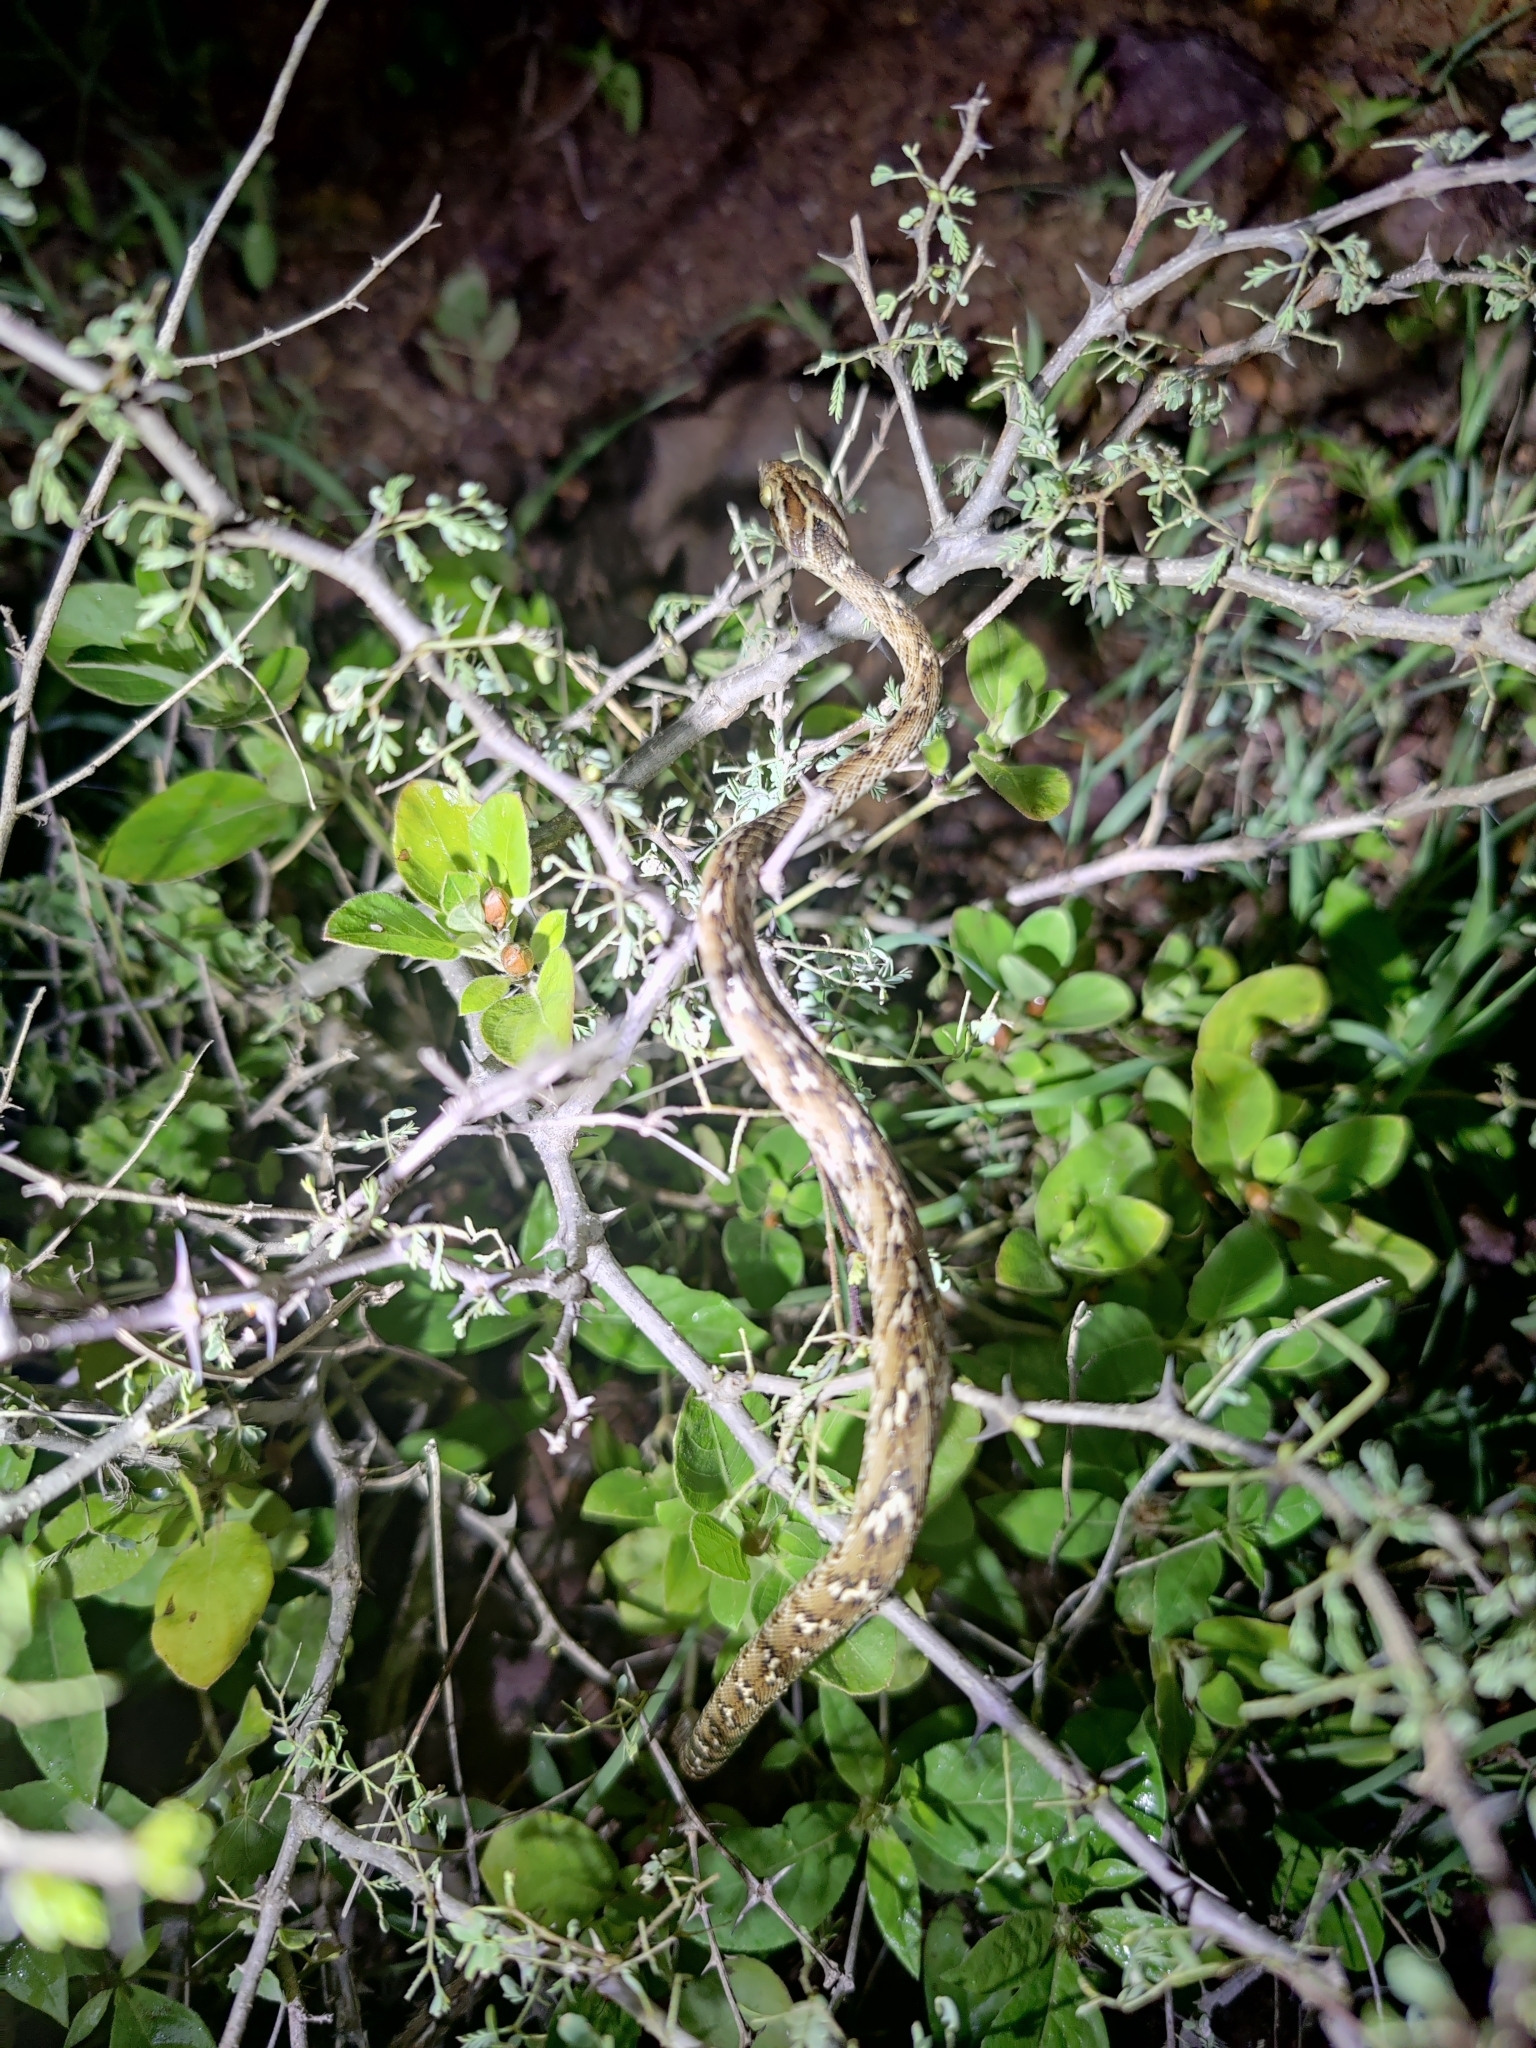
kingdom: Animalia
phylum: Chordata
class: Squamata
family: Colubridae
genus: Boiga
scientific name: Boiga trigonata
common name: Common cat snake
